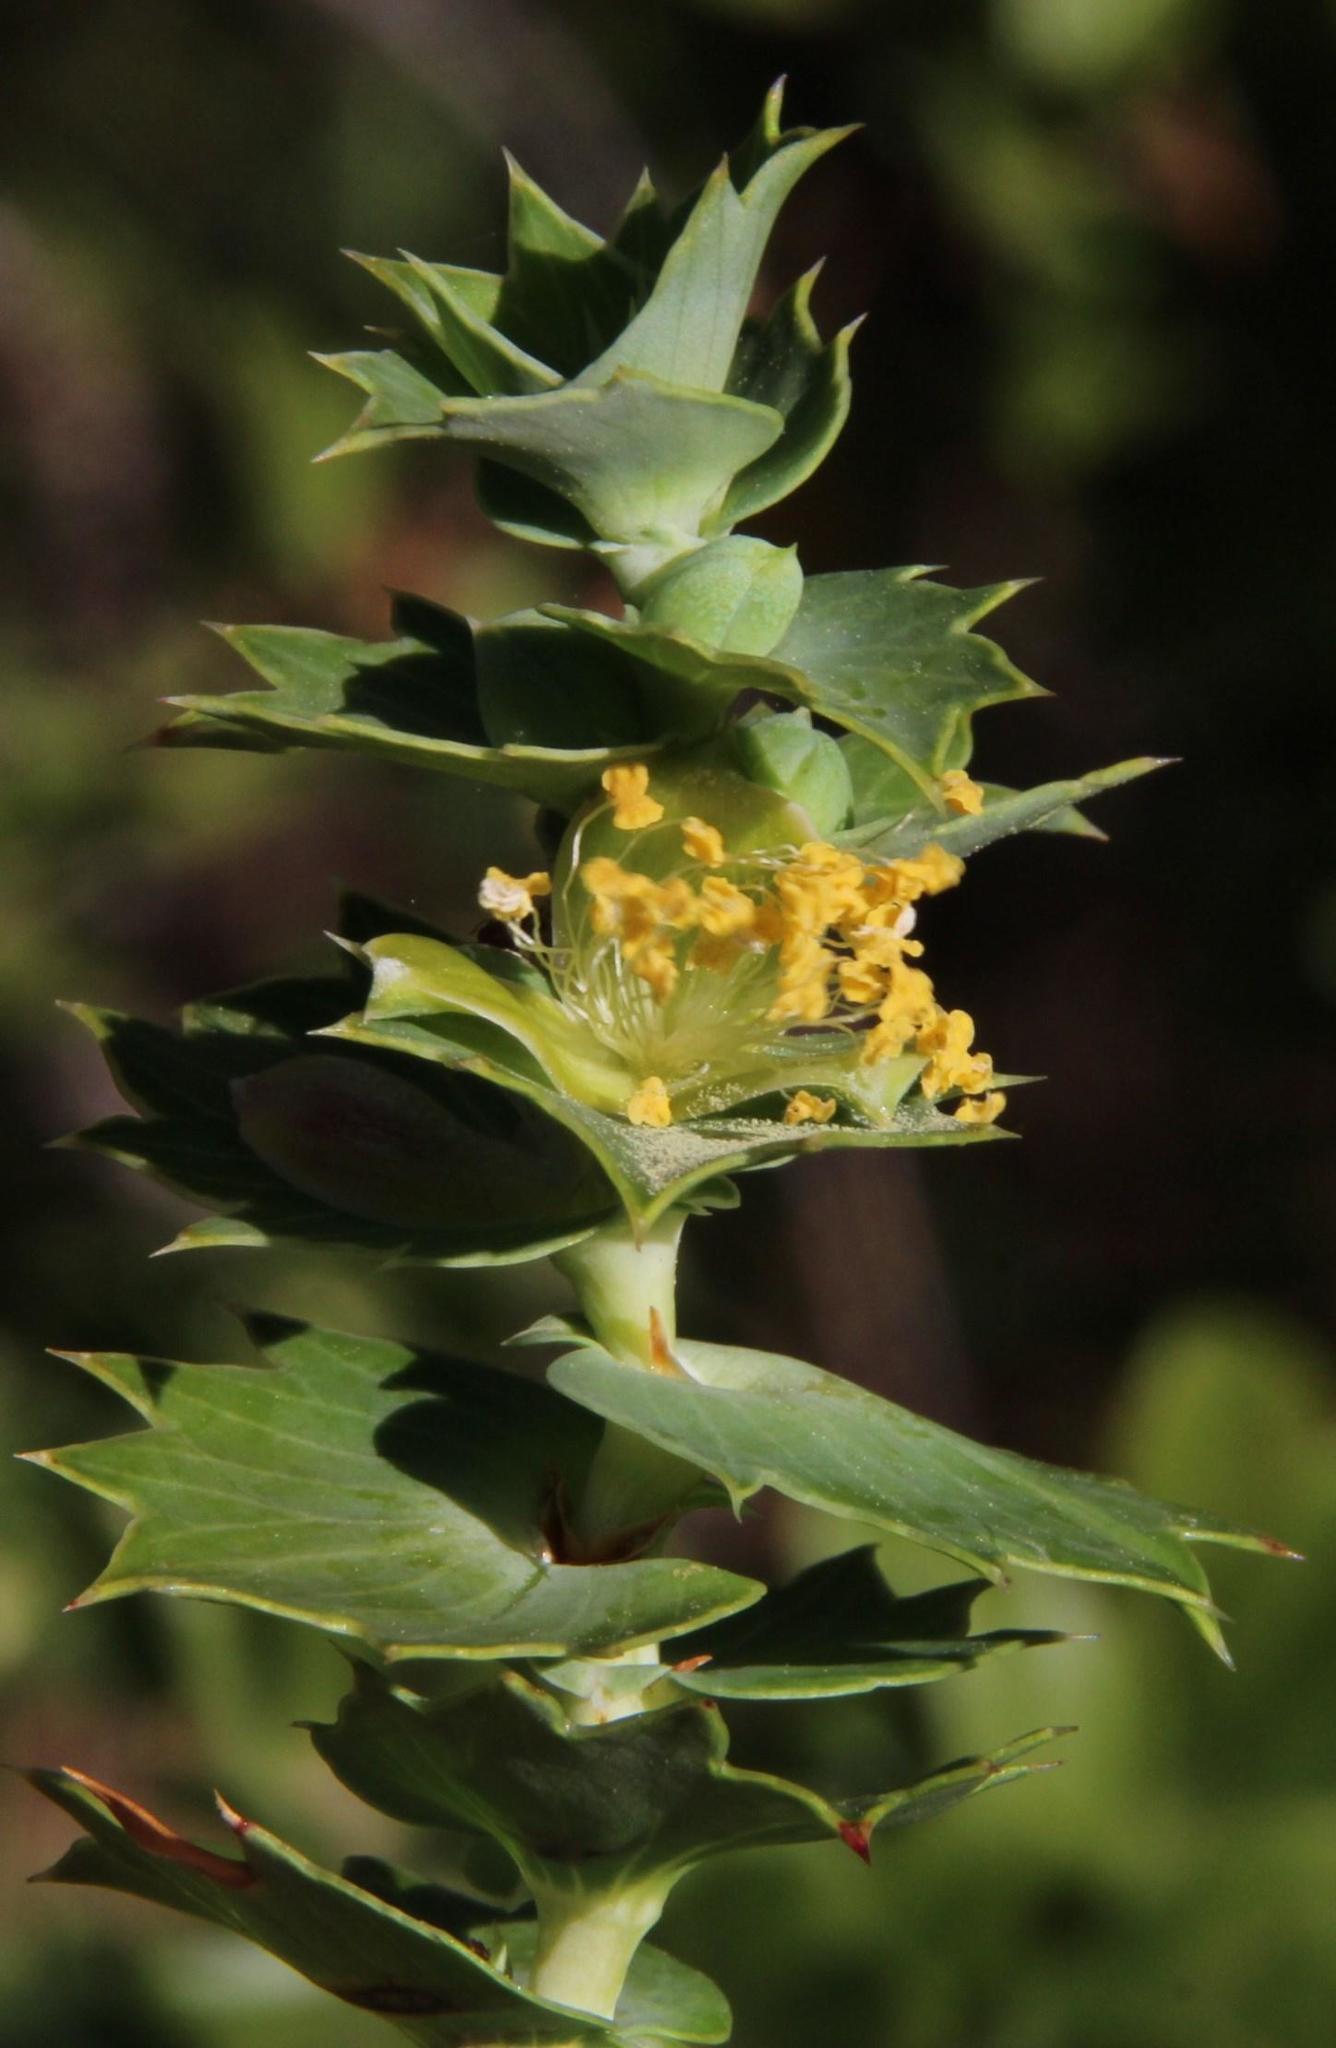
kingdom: Plantae
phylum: Tracheophyta
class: Magnoliopsida
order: Rosales
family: Rosaceae
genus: Cliffortia
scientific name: Cliffortia reniformis
